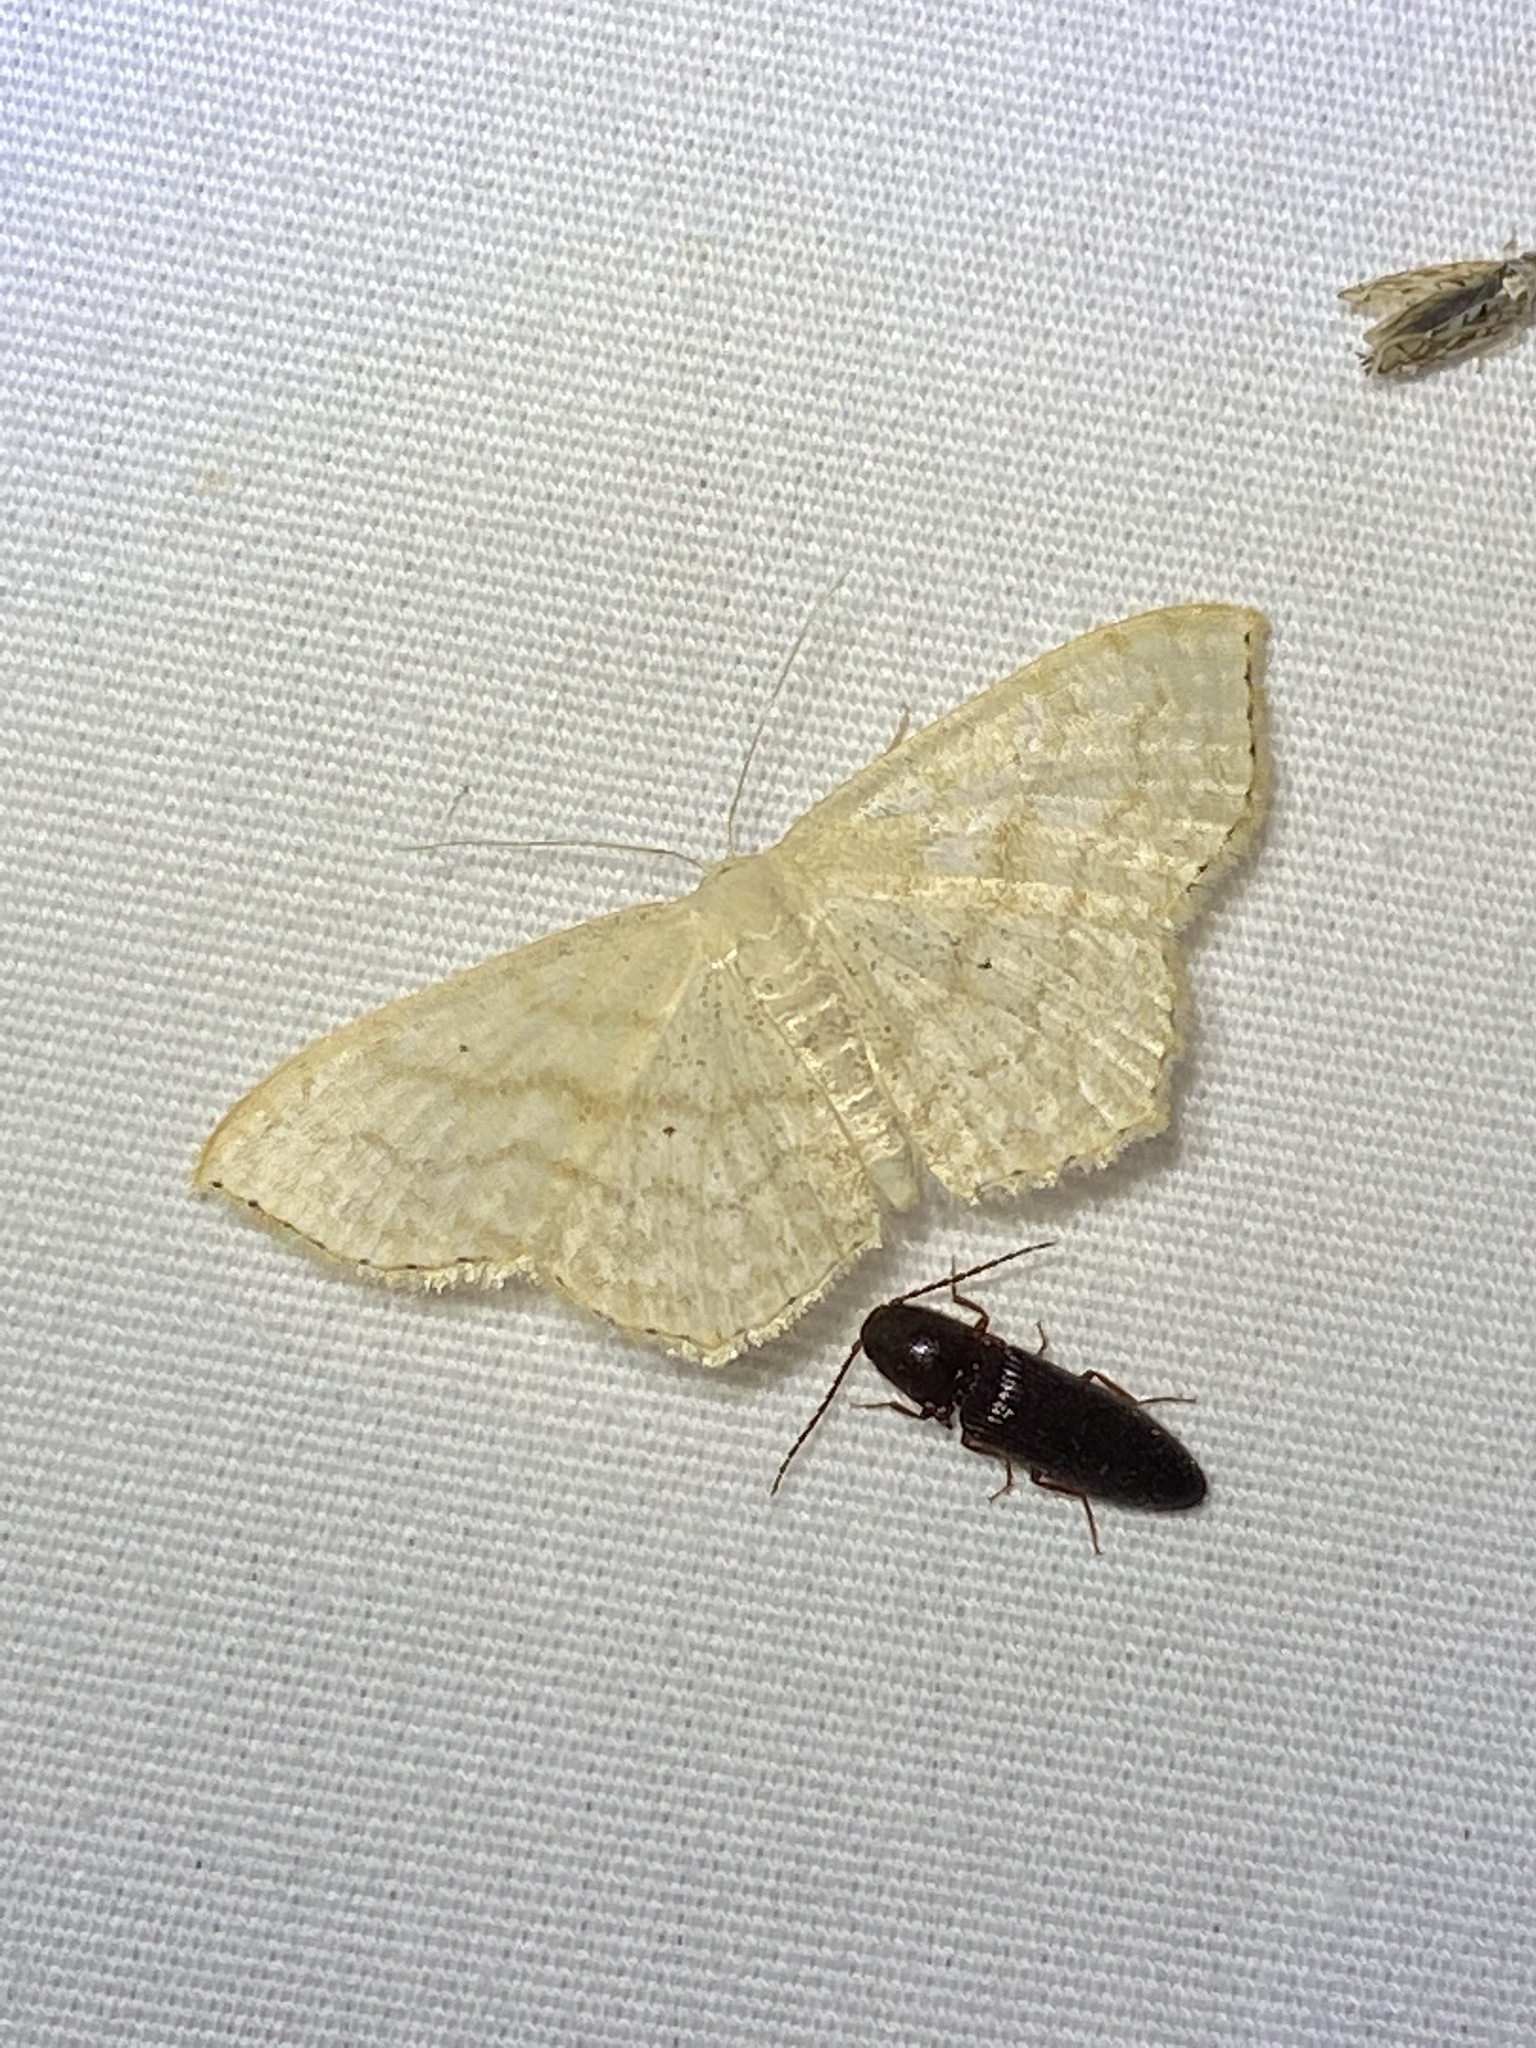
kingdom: Animalia
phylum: Arthropoda
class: Insecta
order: Lepidoptera
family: Geometridae
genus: Scopula
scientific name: Scopula limboundata
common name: Large lace border
